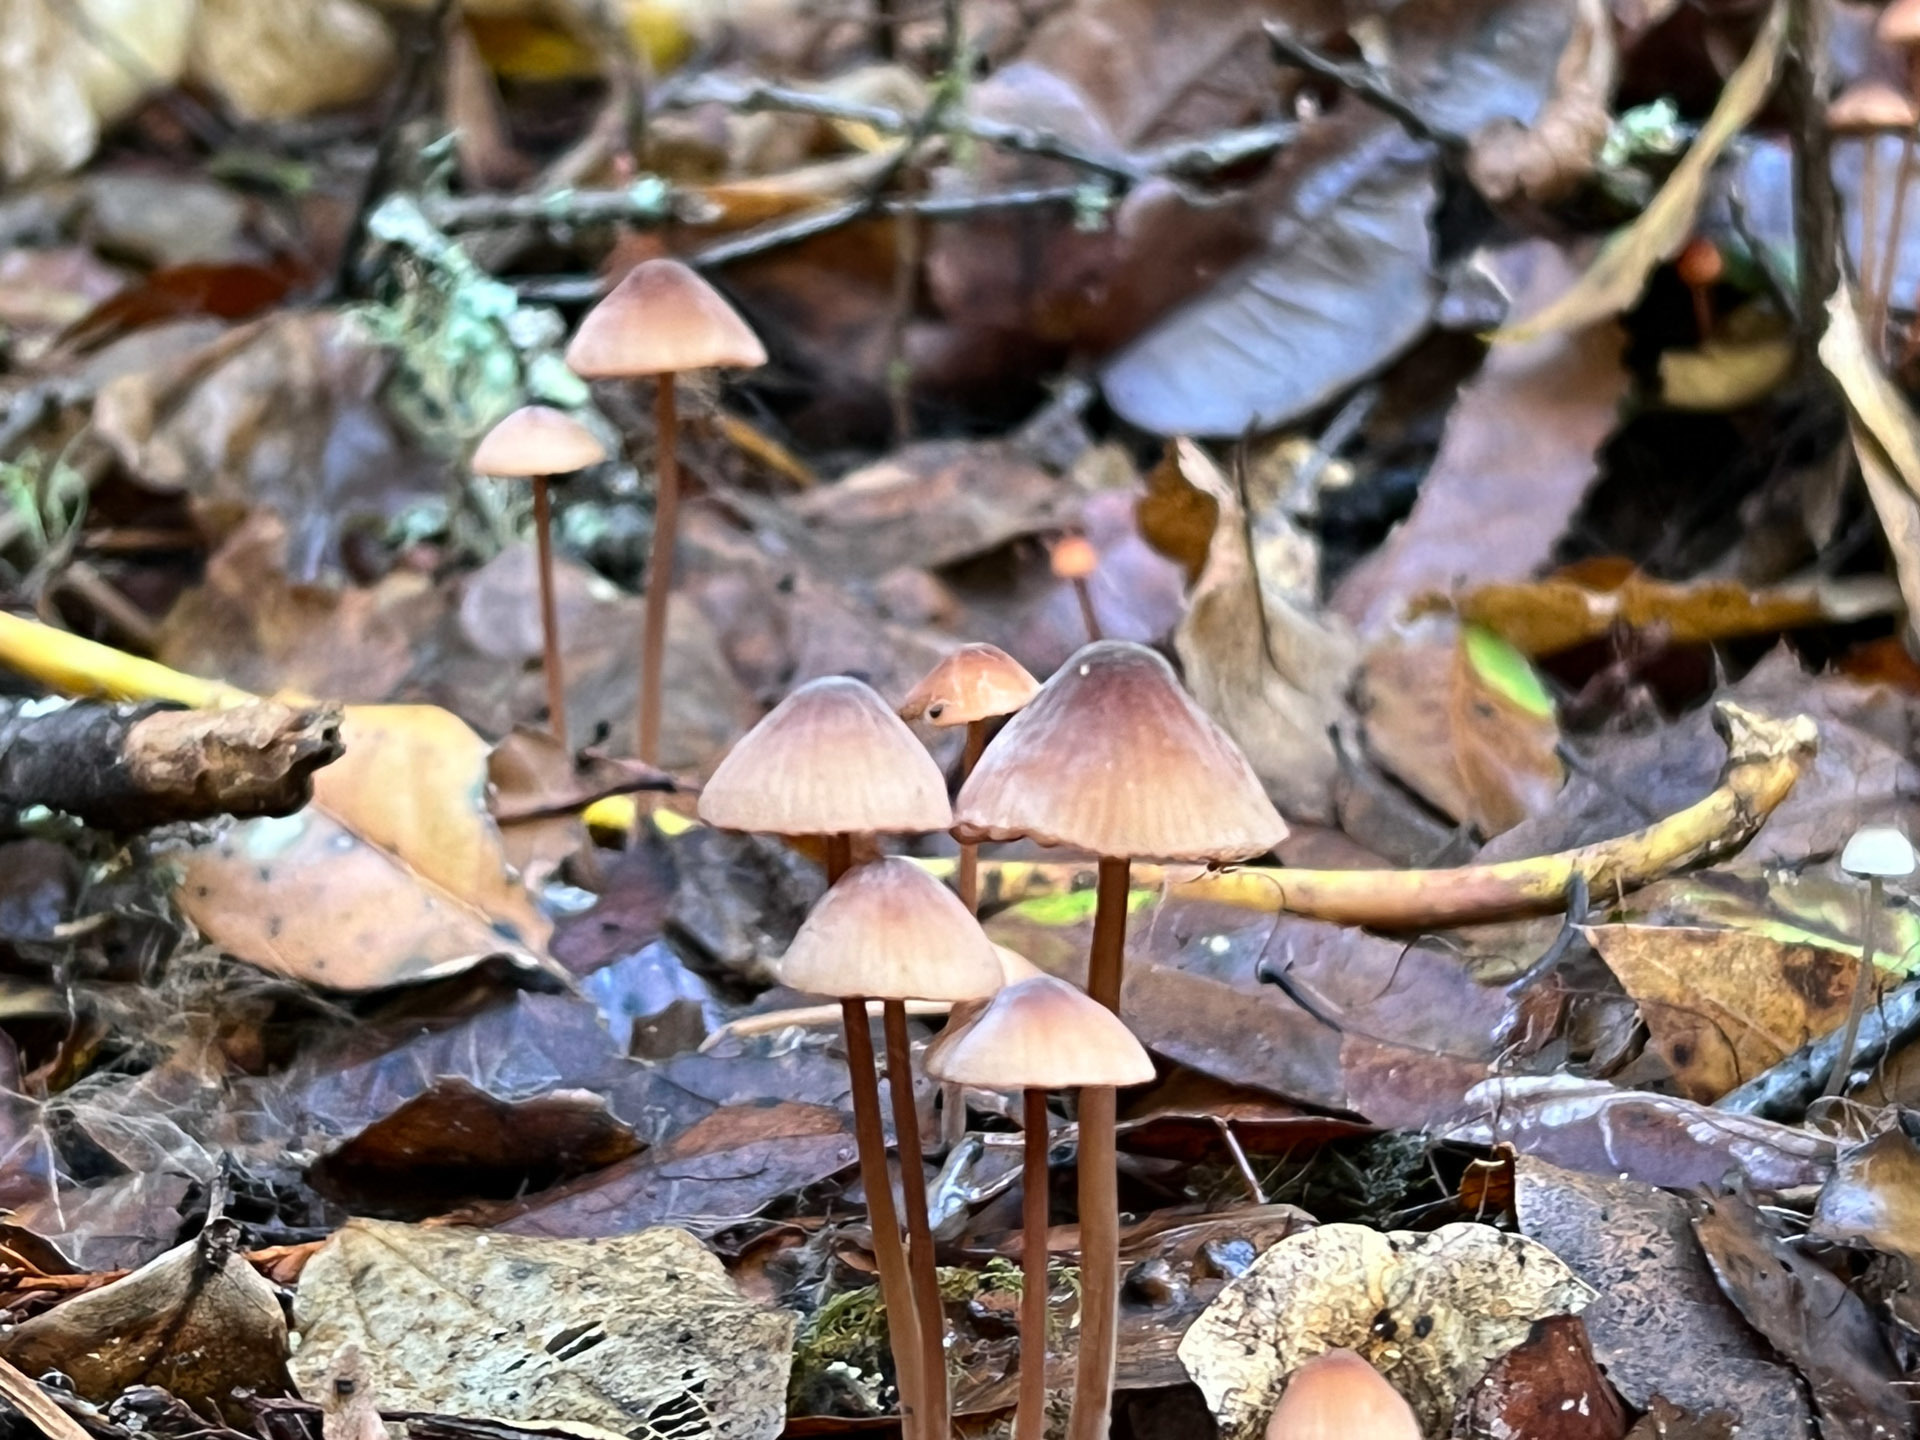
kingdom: Fungi
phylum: Basidiomycota
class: Agaricomycetes
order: Agaricales
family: Mycenaceae
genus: Mycena
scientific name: Mycena
